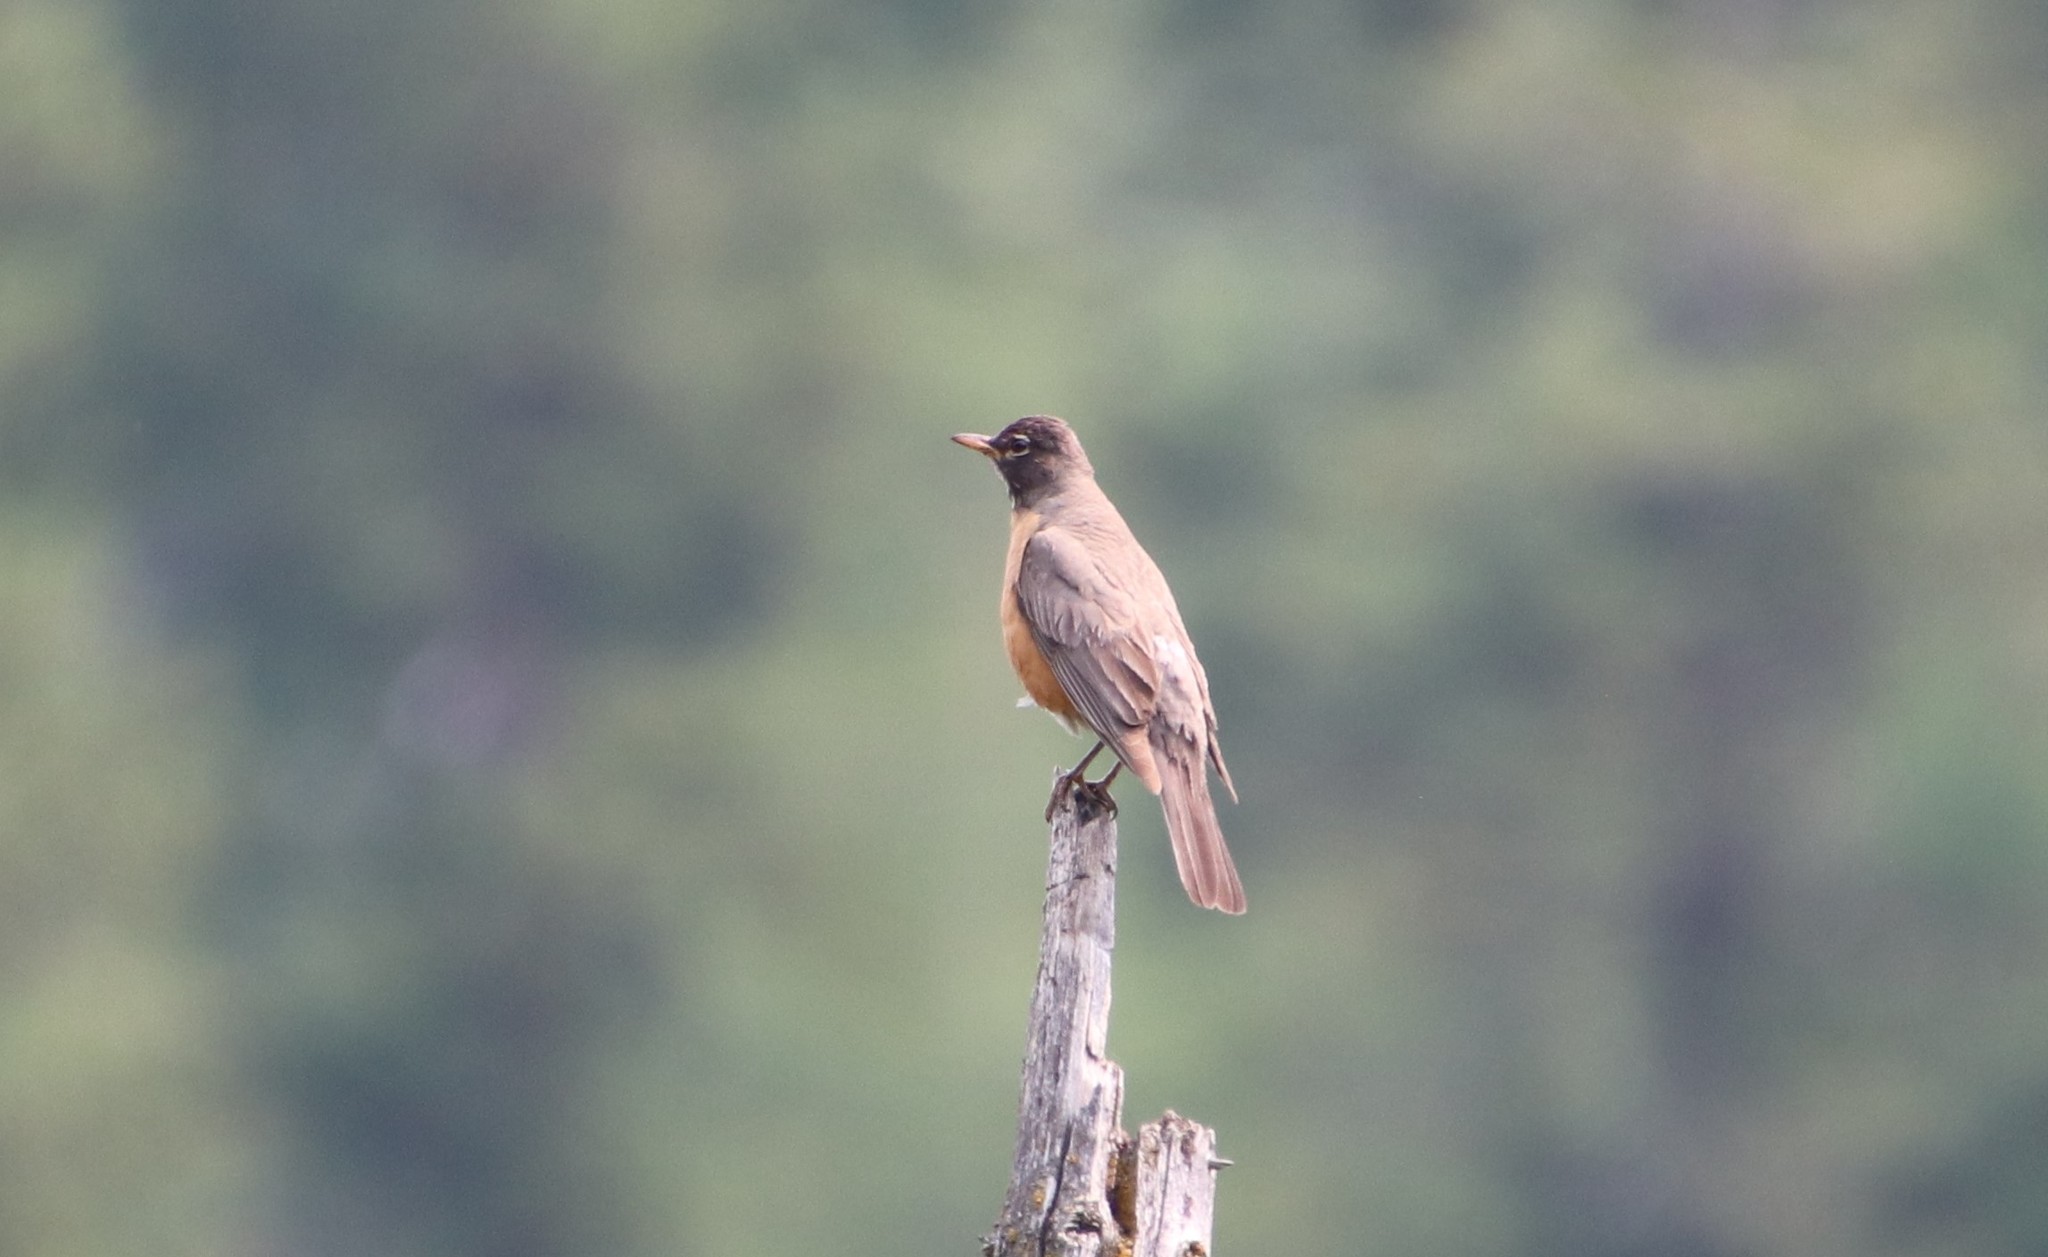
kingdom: Animalia
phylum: Chordata
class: Aves
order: Passeriformes
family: Turdidae
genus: Turdus
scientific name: Turdus migratorius
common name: American robin
